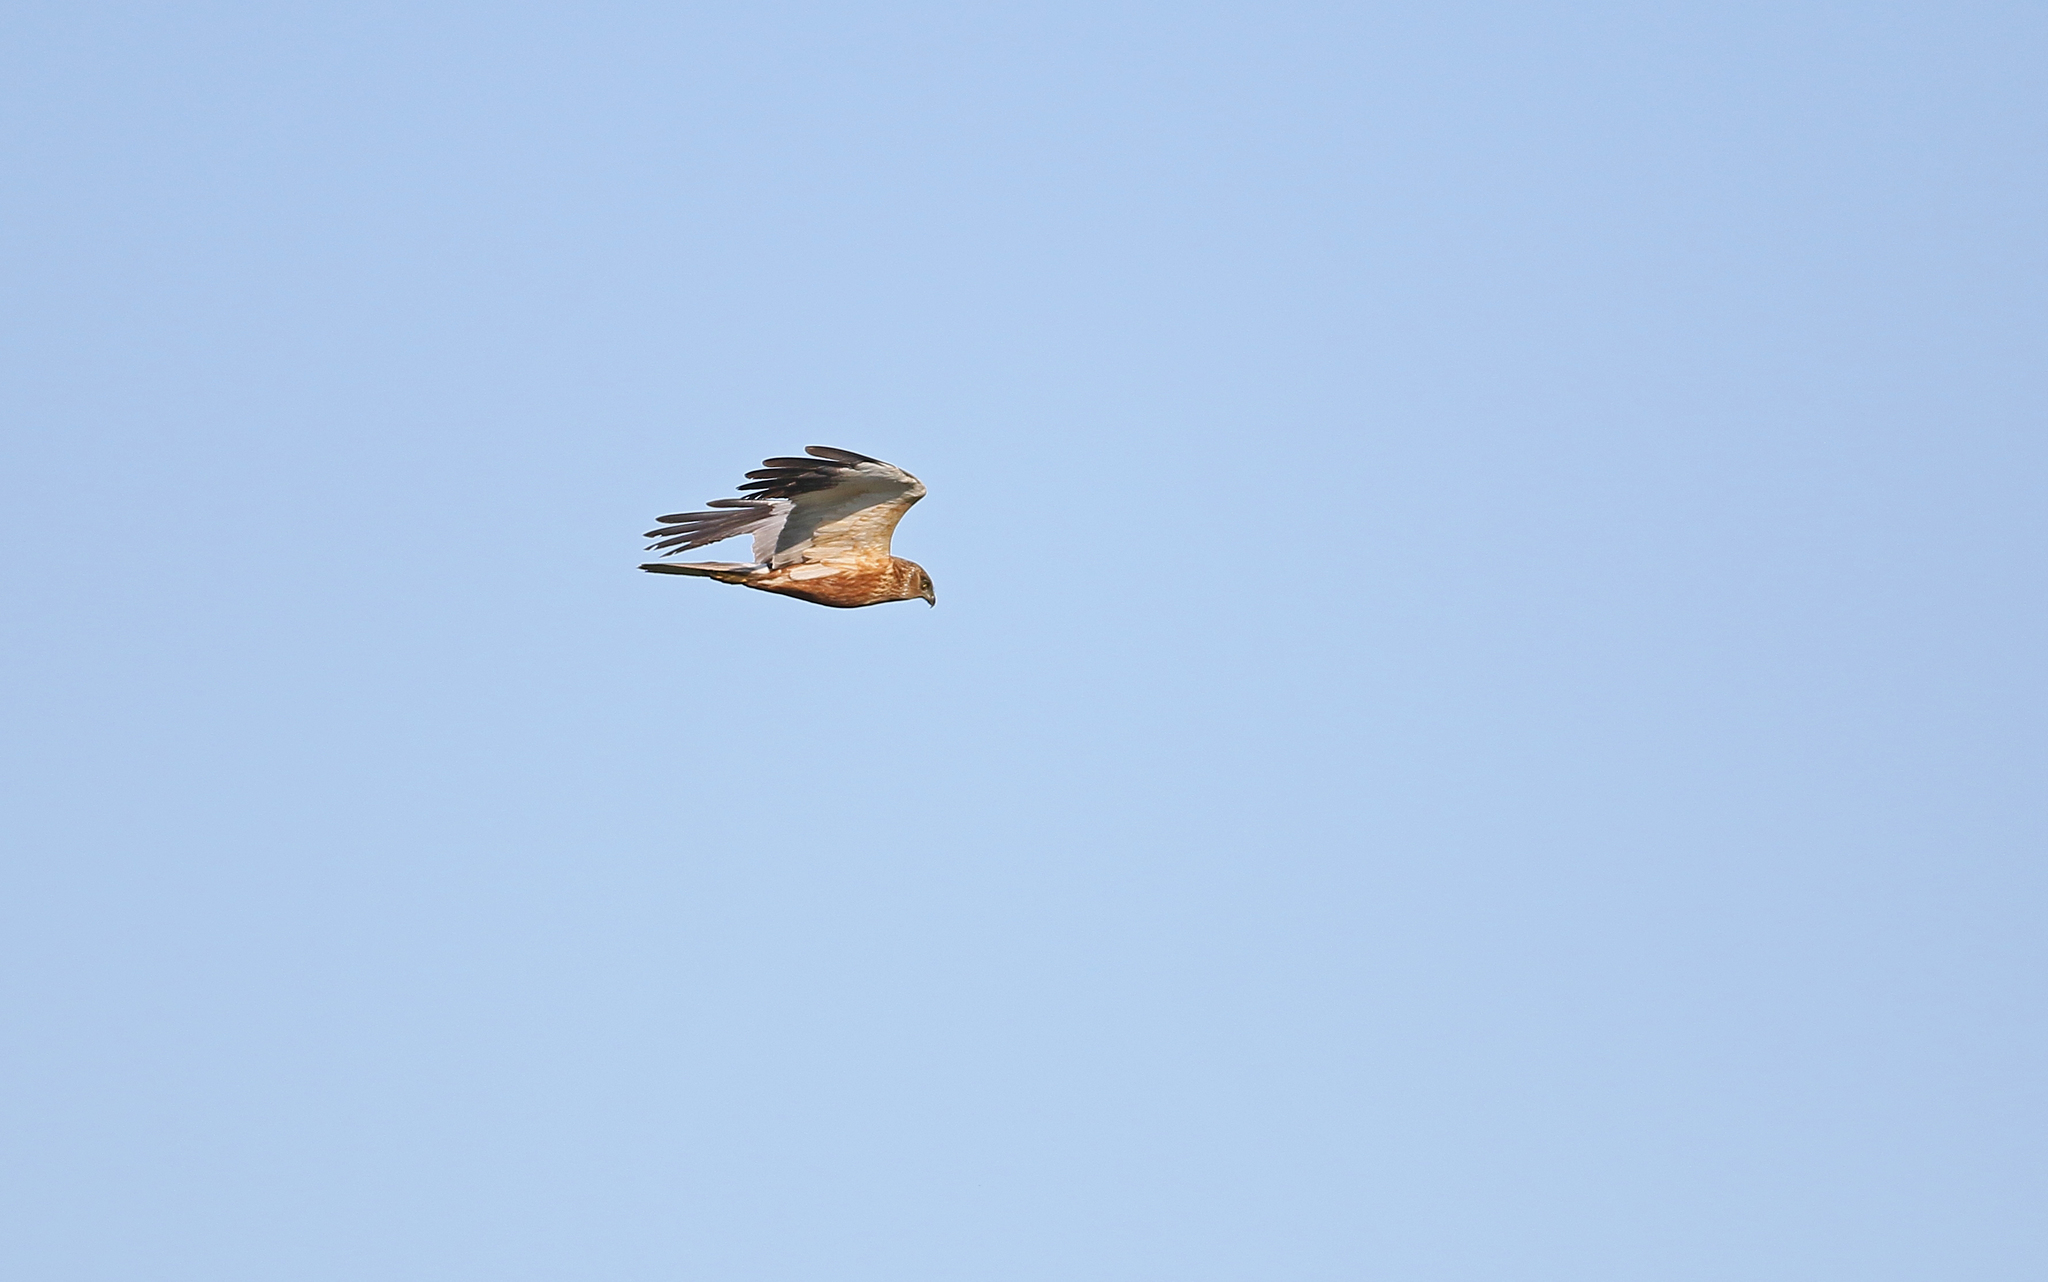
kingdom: Animalia
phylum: Chordata
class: Aves
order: Accipitriformes
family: Accipitridae
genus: Circus
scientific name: Circus aeruginosus
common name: Western marsh harrier
